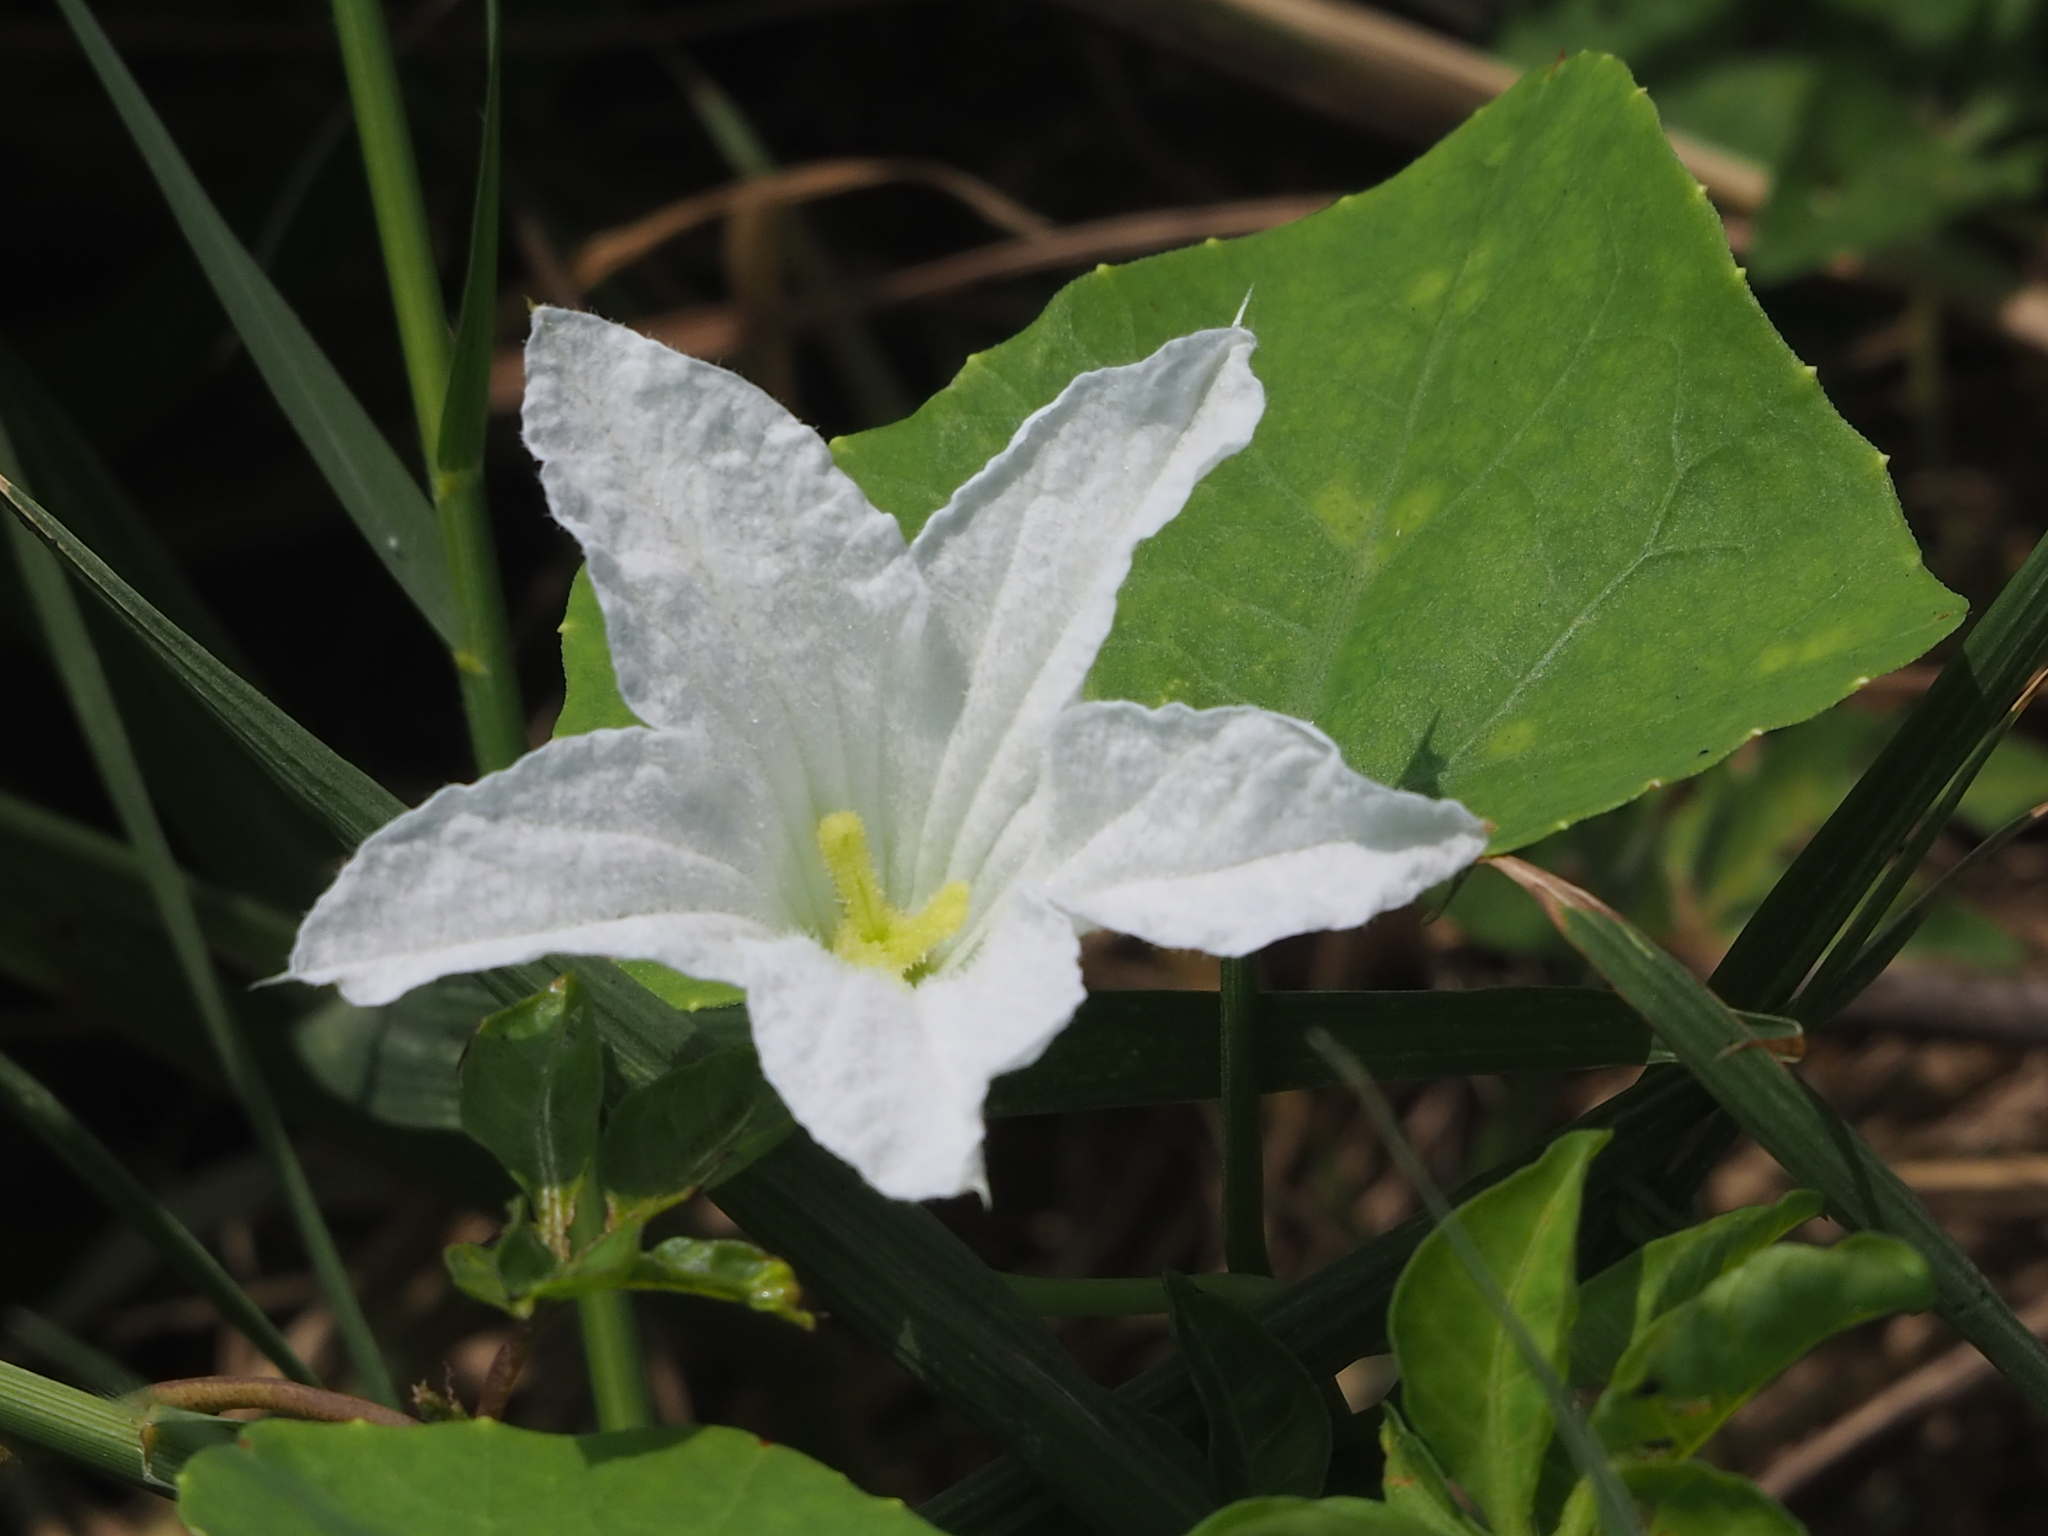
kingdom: Plantae
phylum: Tracheophyta
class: Magnoliopsida
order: Cucurbitales
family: Cucurbitaceae
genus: Coccinia
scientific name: Coccinia grandis
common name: Ivy gourd
